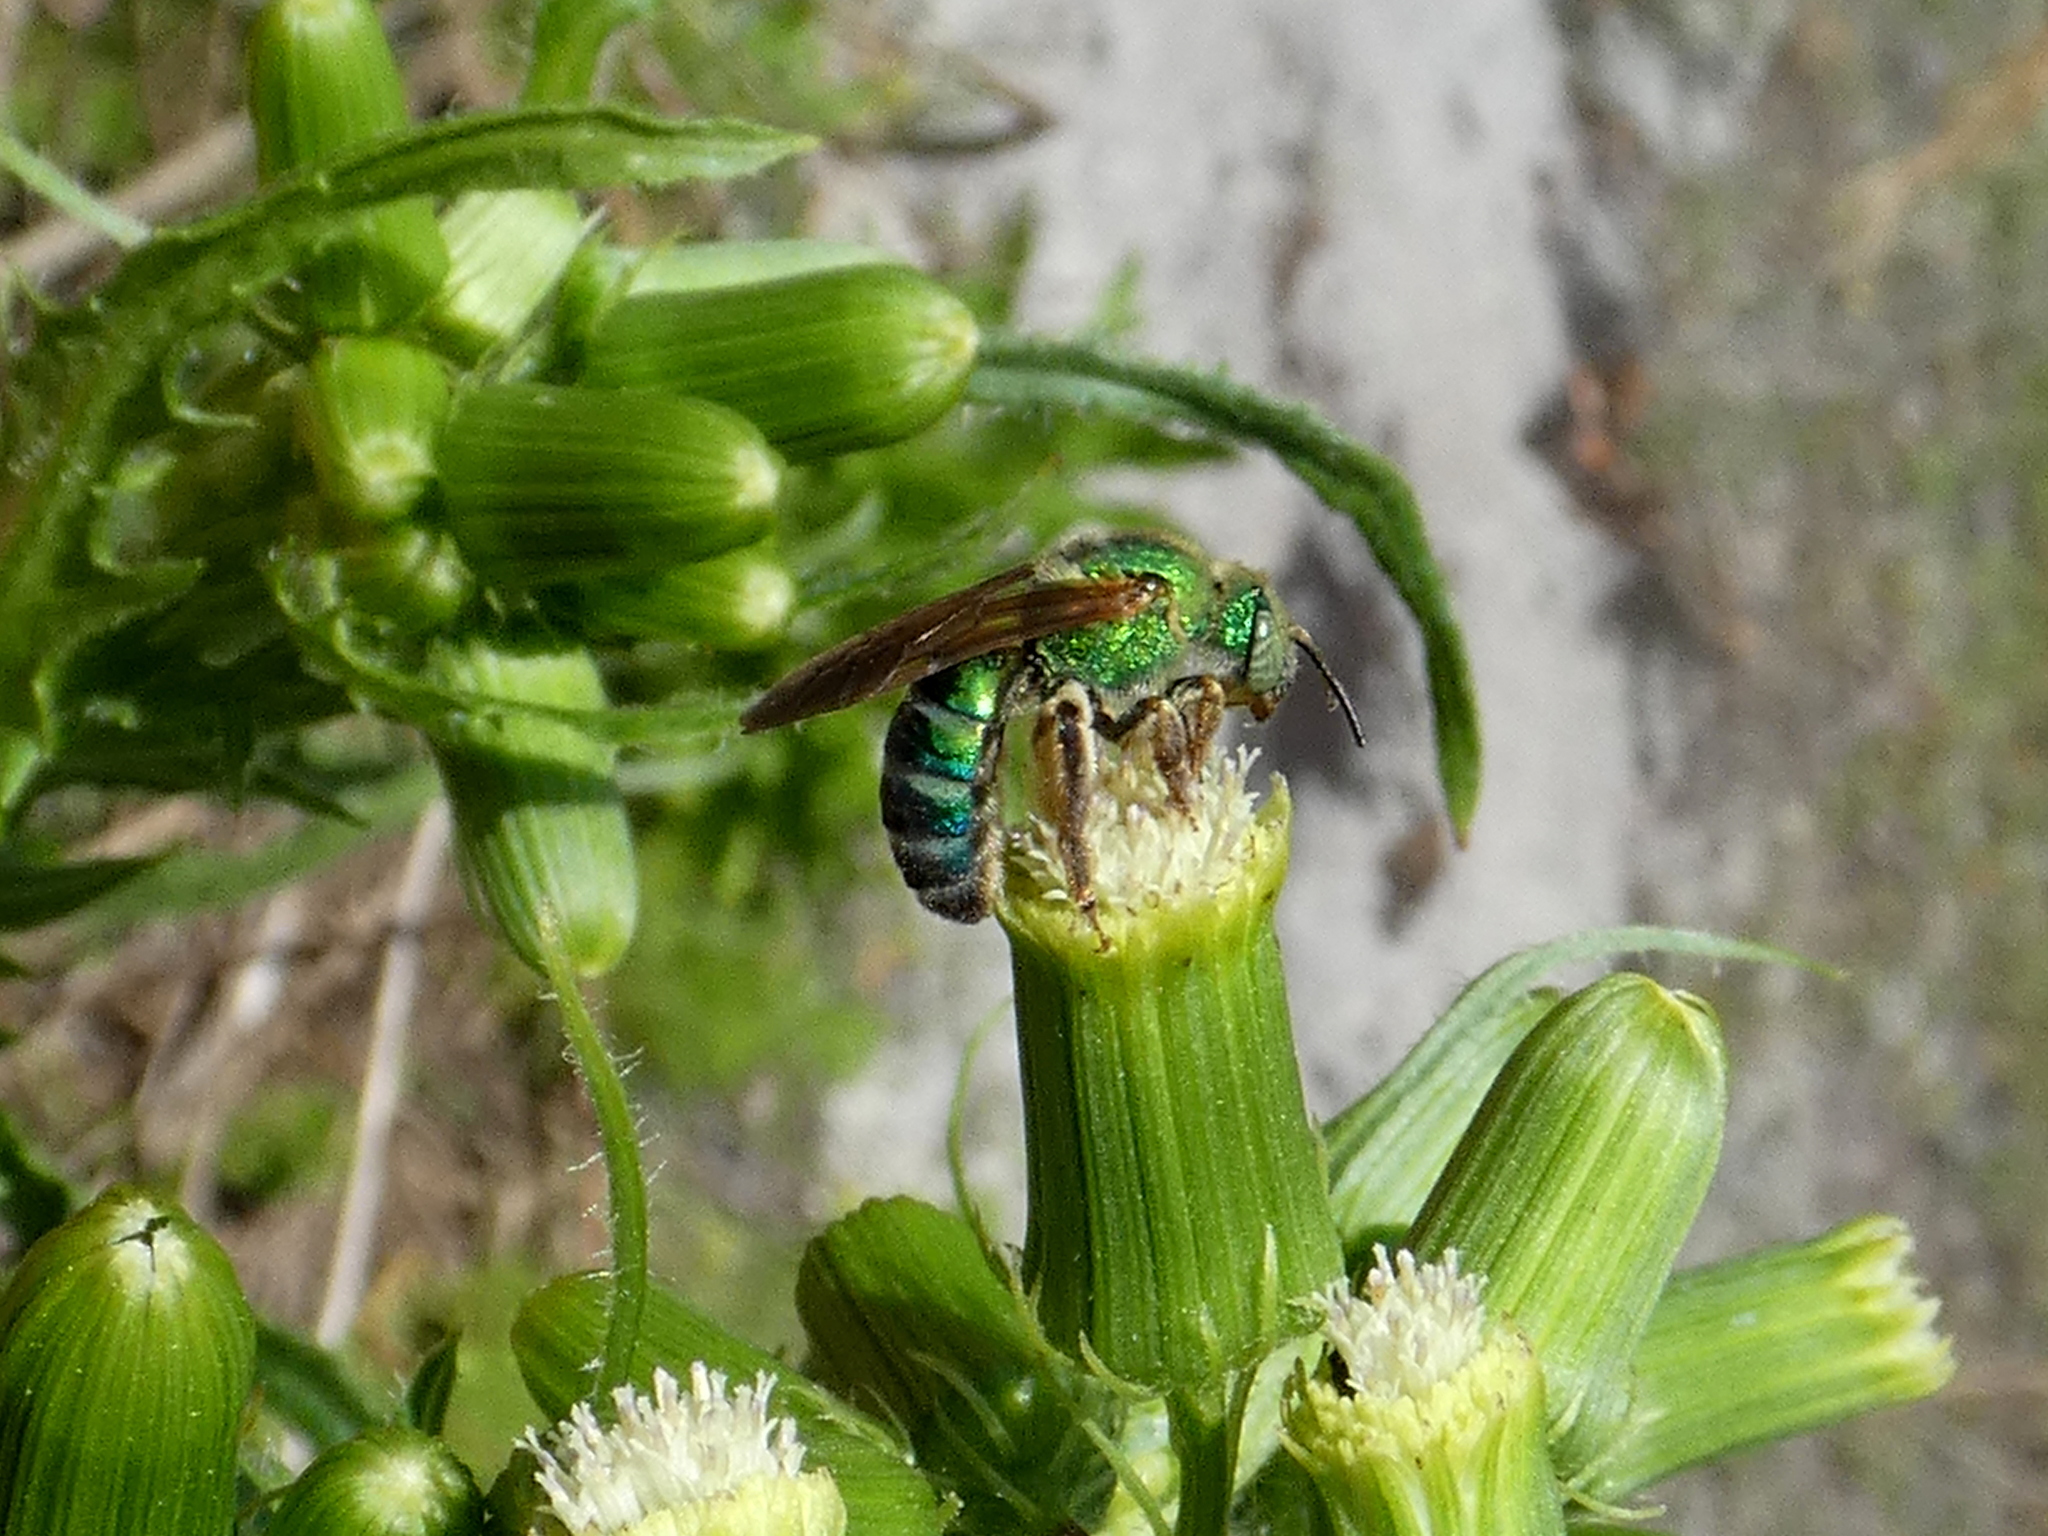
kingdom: Animalia
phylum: Arthropoda
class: Insecta
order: Hymenoptera
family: Halictidae
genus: Agapostemon
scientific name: Agapostemon splendens
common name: Brown-winged striped sweat bee
